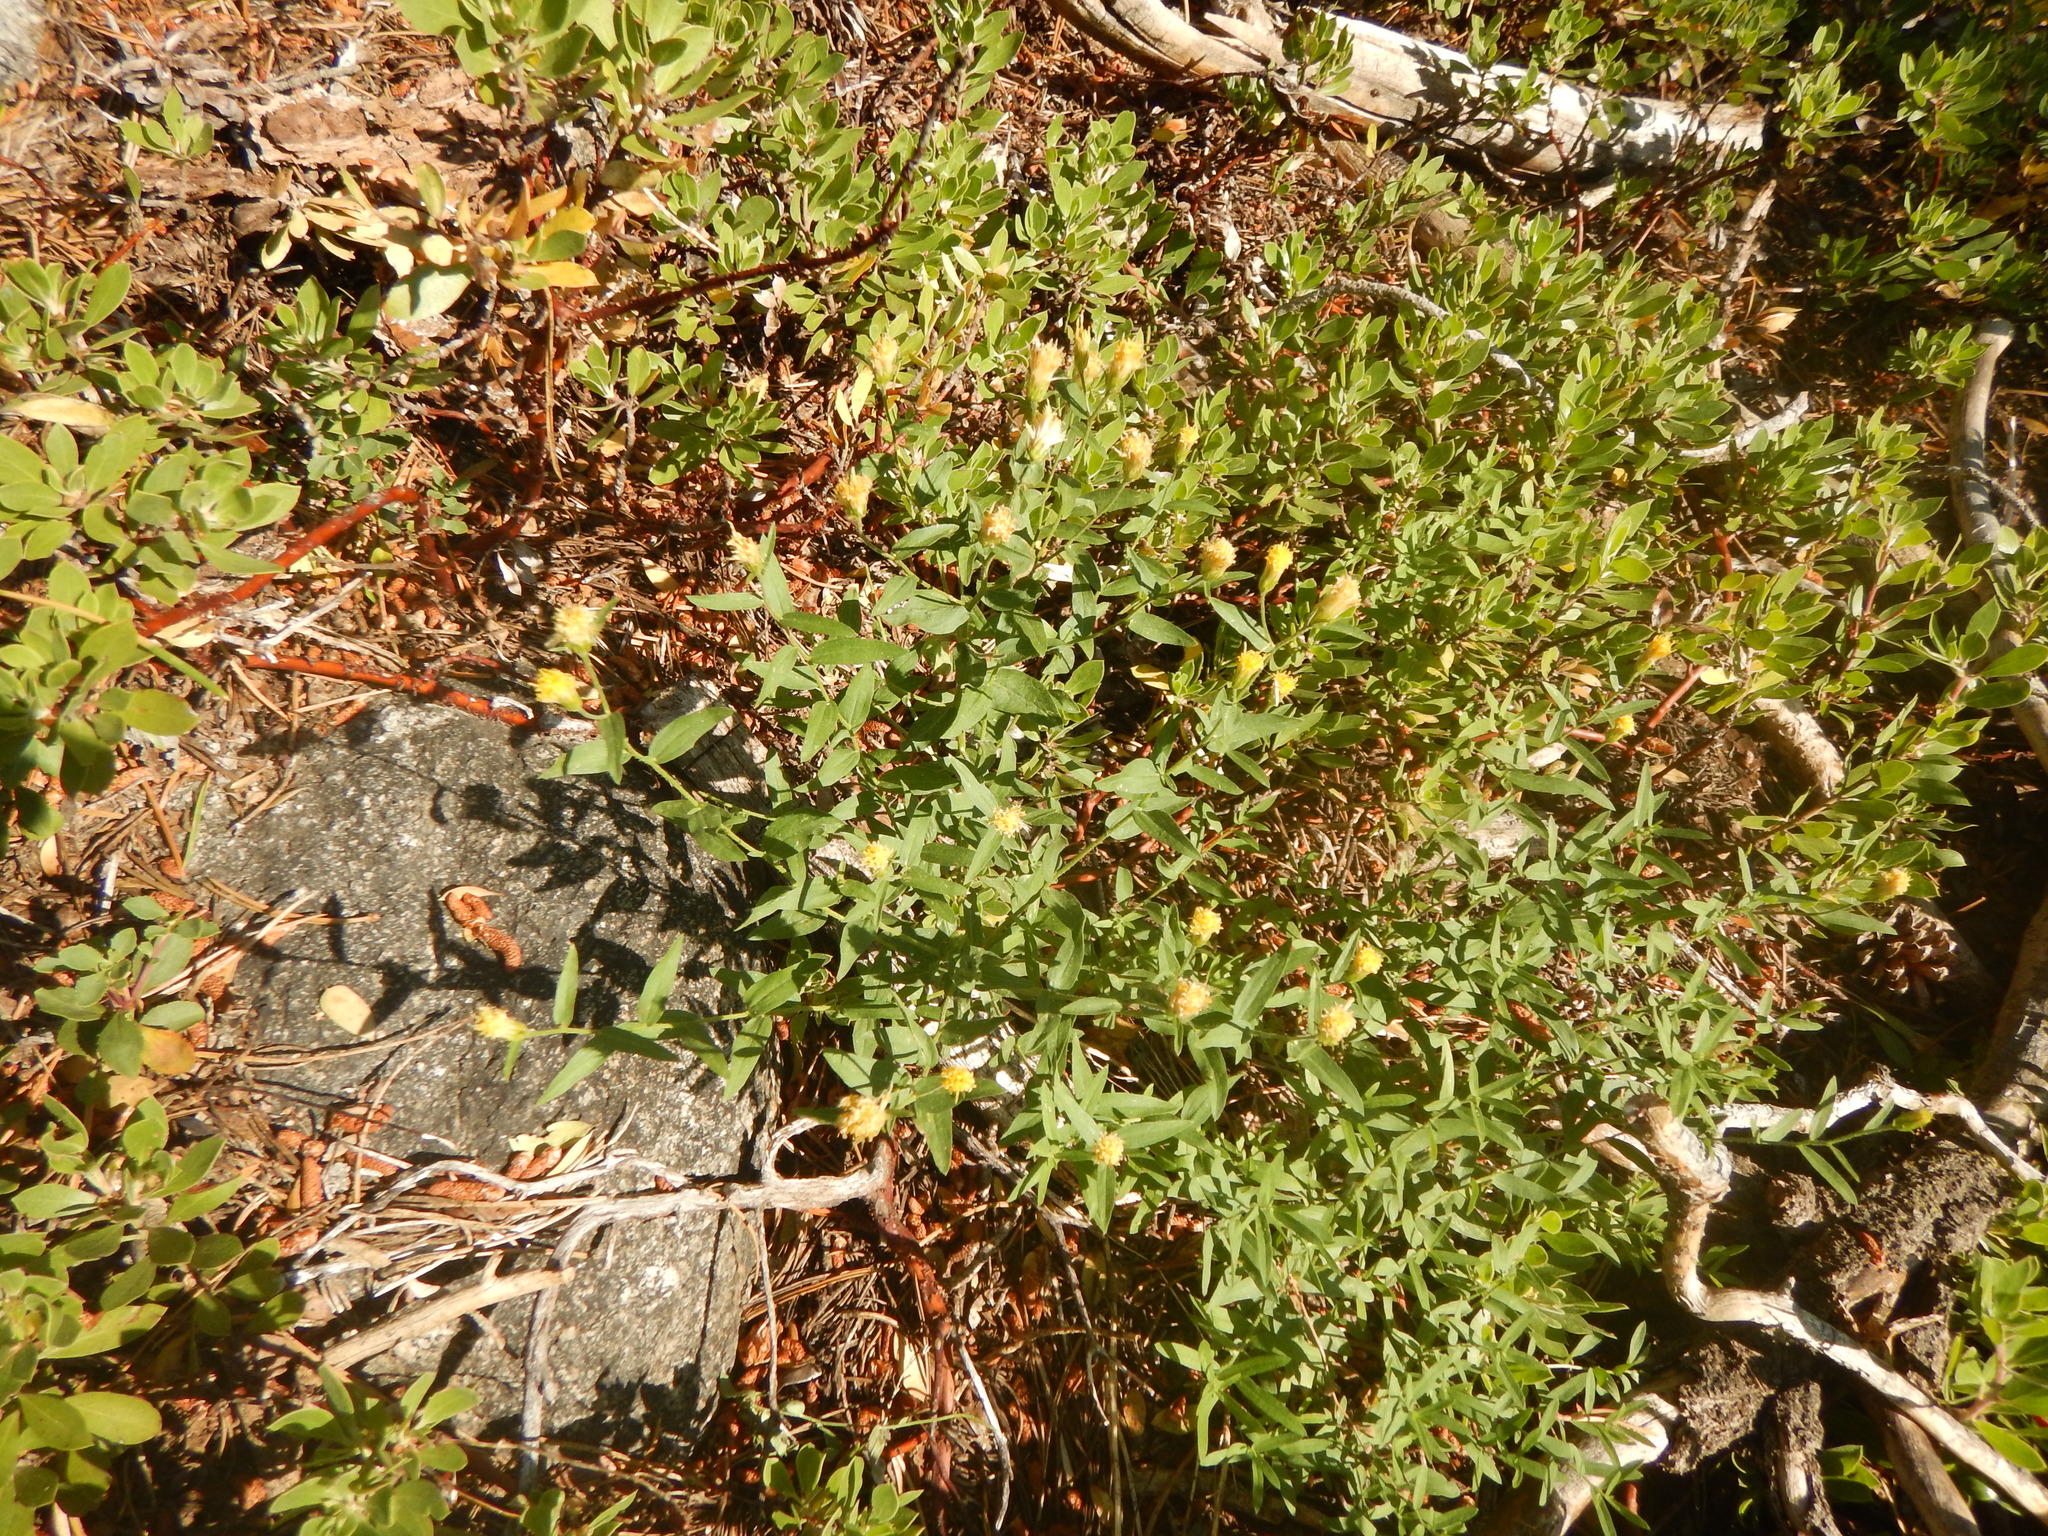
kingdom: Plantae
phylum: Tracheophyta
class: Magnoliopsida
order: Asterales
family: Asteraceae
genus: Eucephalus
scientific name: Eucephalus breweri
